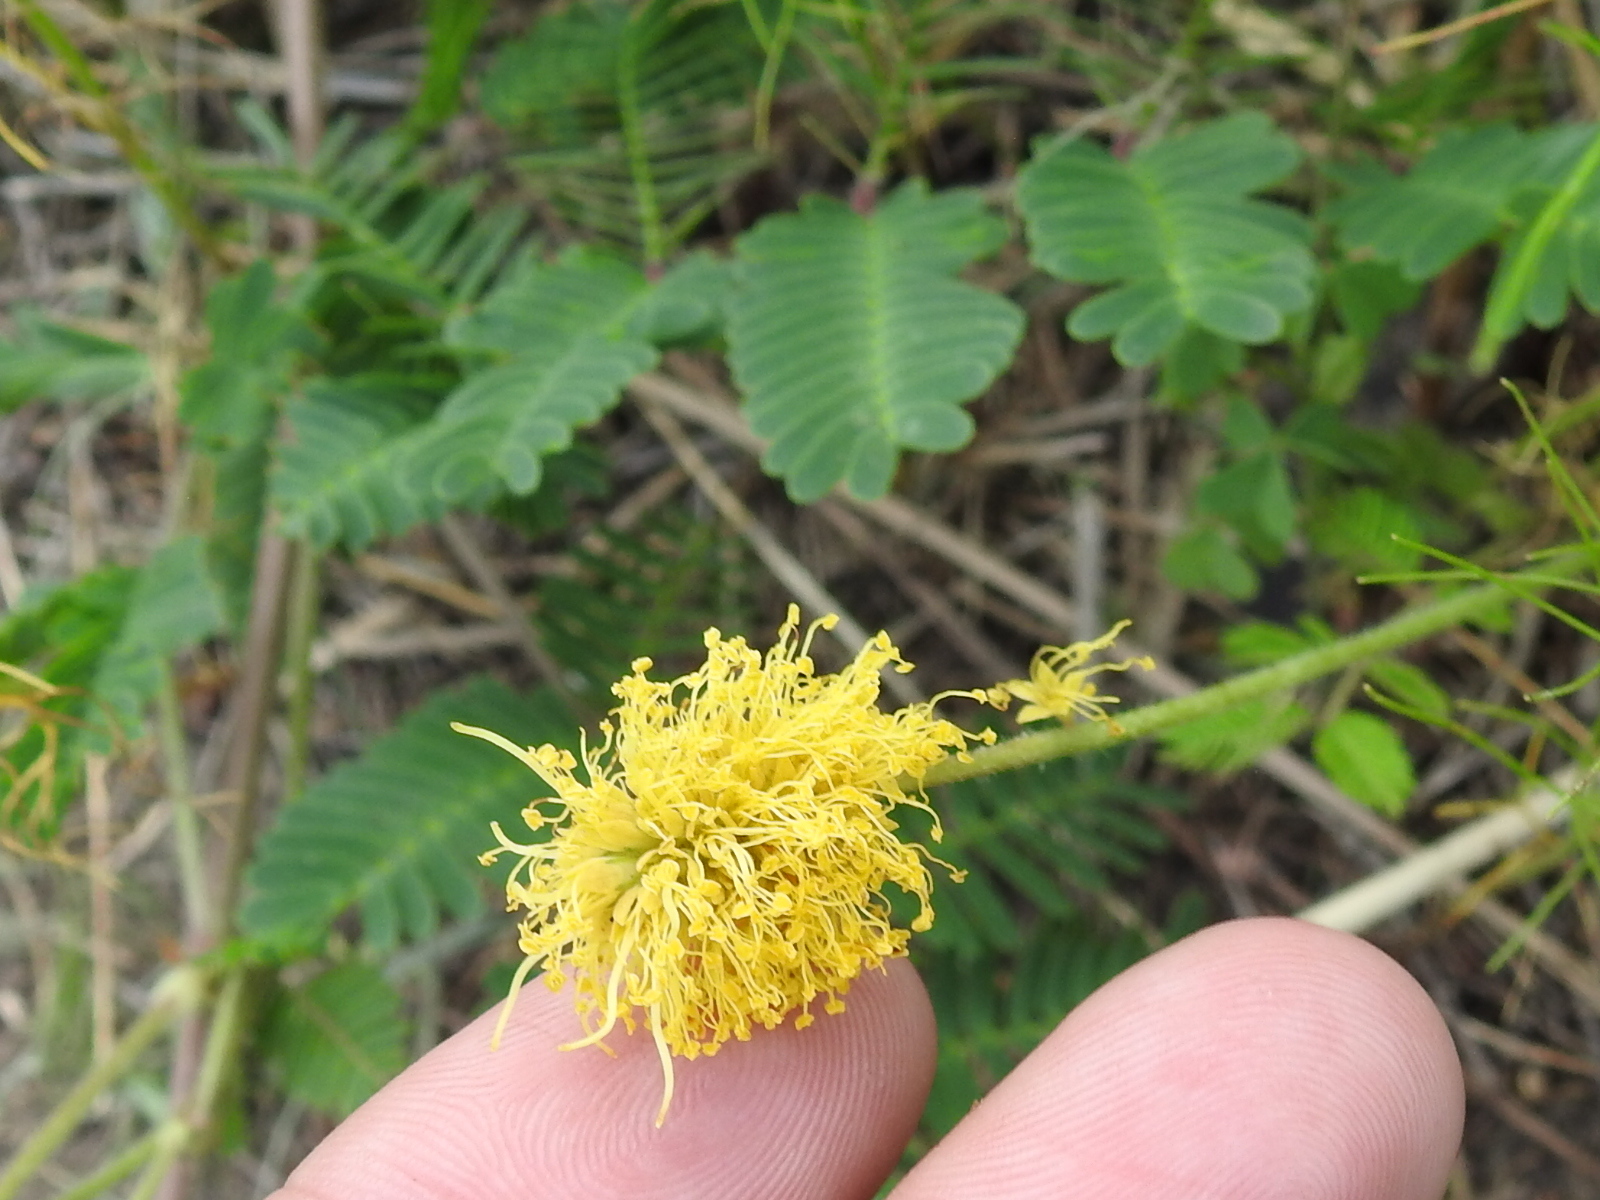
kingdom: Plantae
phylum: Tracheophyta
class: Magnoliopsida
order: Fabales
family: Fabaceae
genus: Neptunia
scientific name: Neptunia lutea
